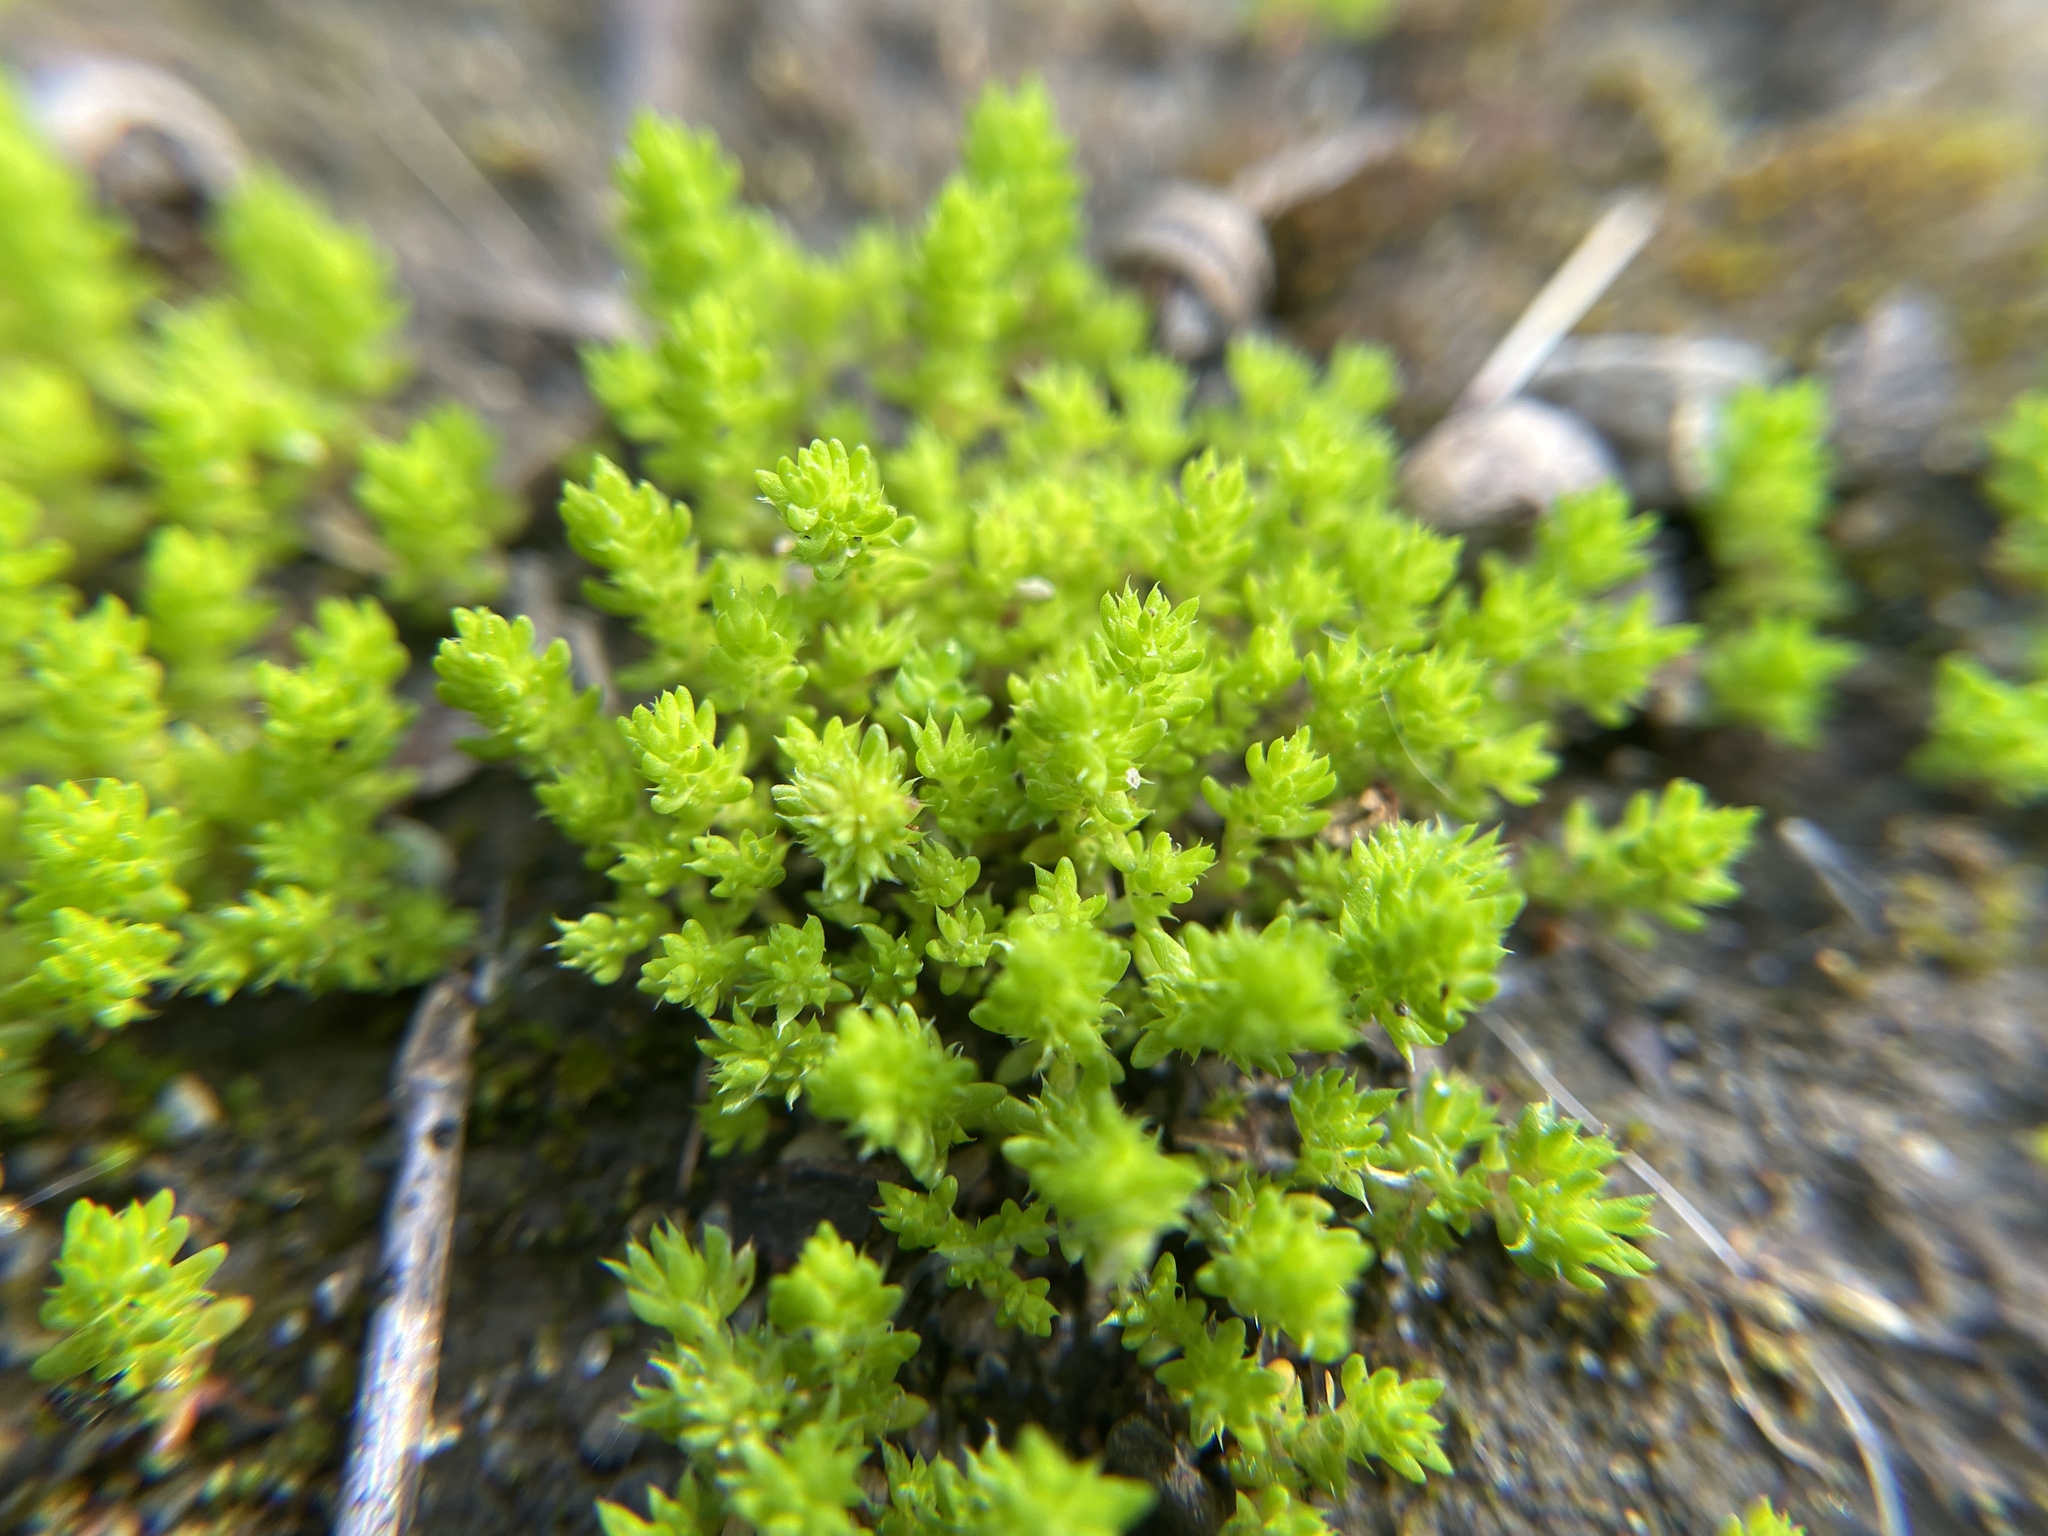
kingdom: Plantae
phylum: Tracheophyta
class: Magnoliopsida
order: Saxifragales
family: Crassulaceae
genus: Crassula
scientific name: Crassula tillaea
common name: Mossy stonecrop
